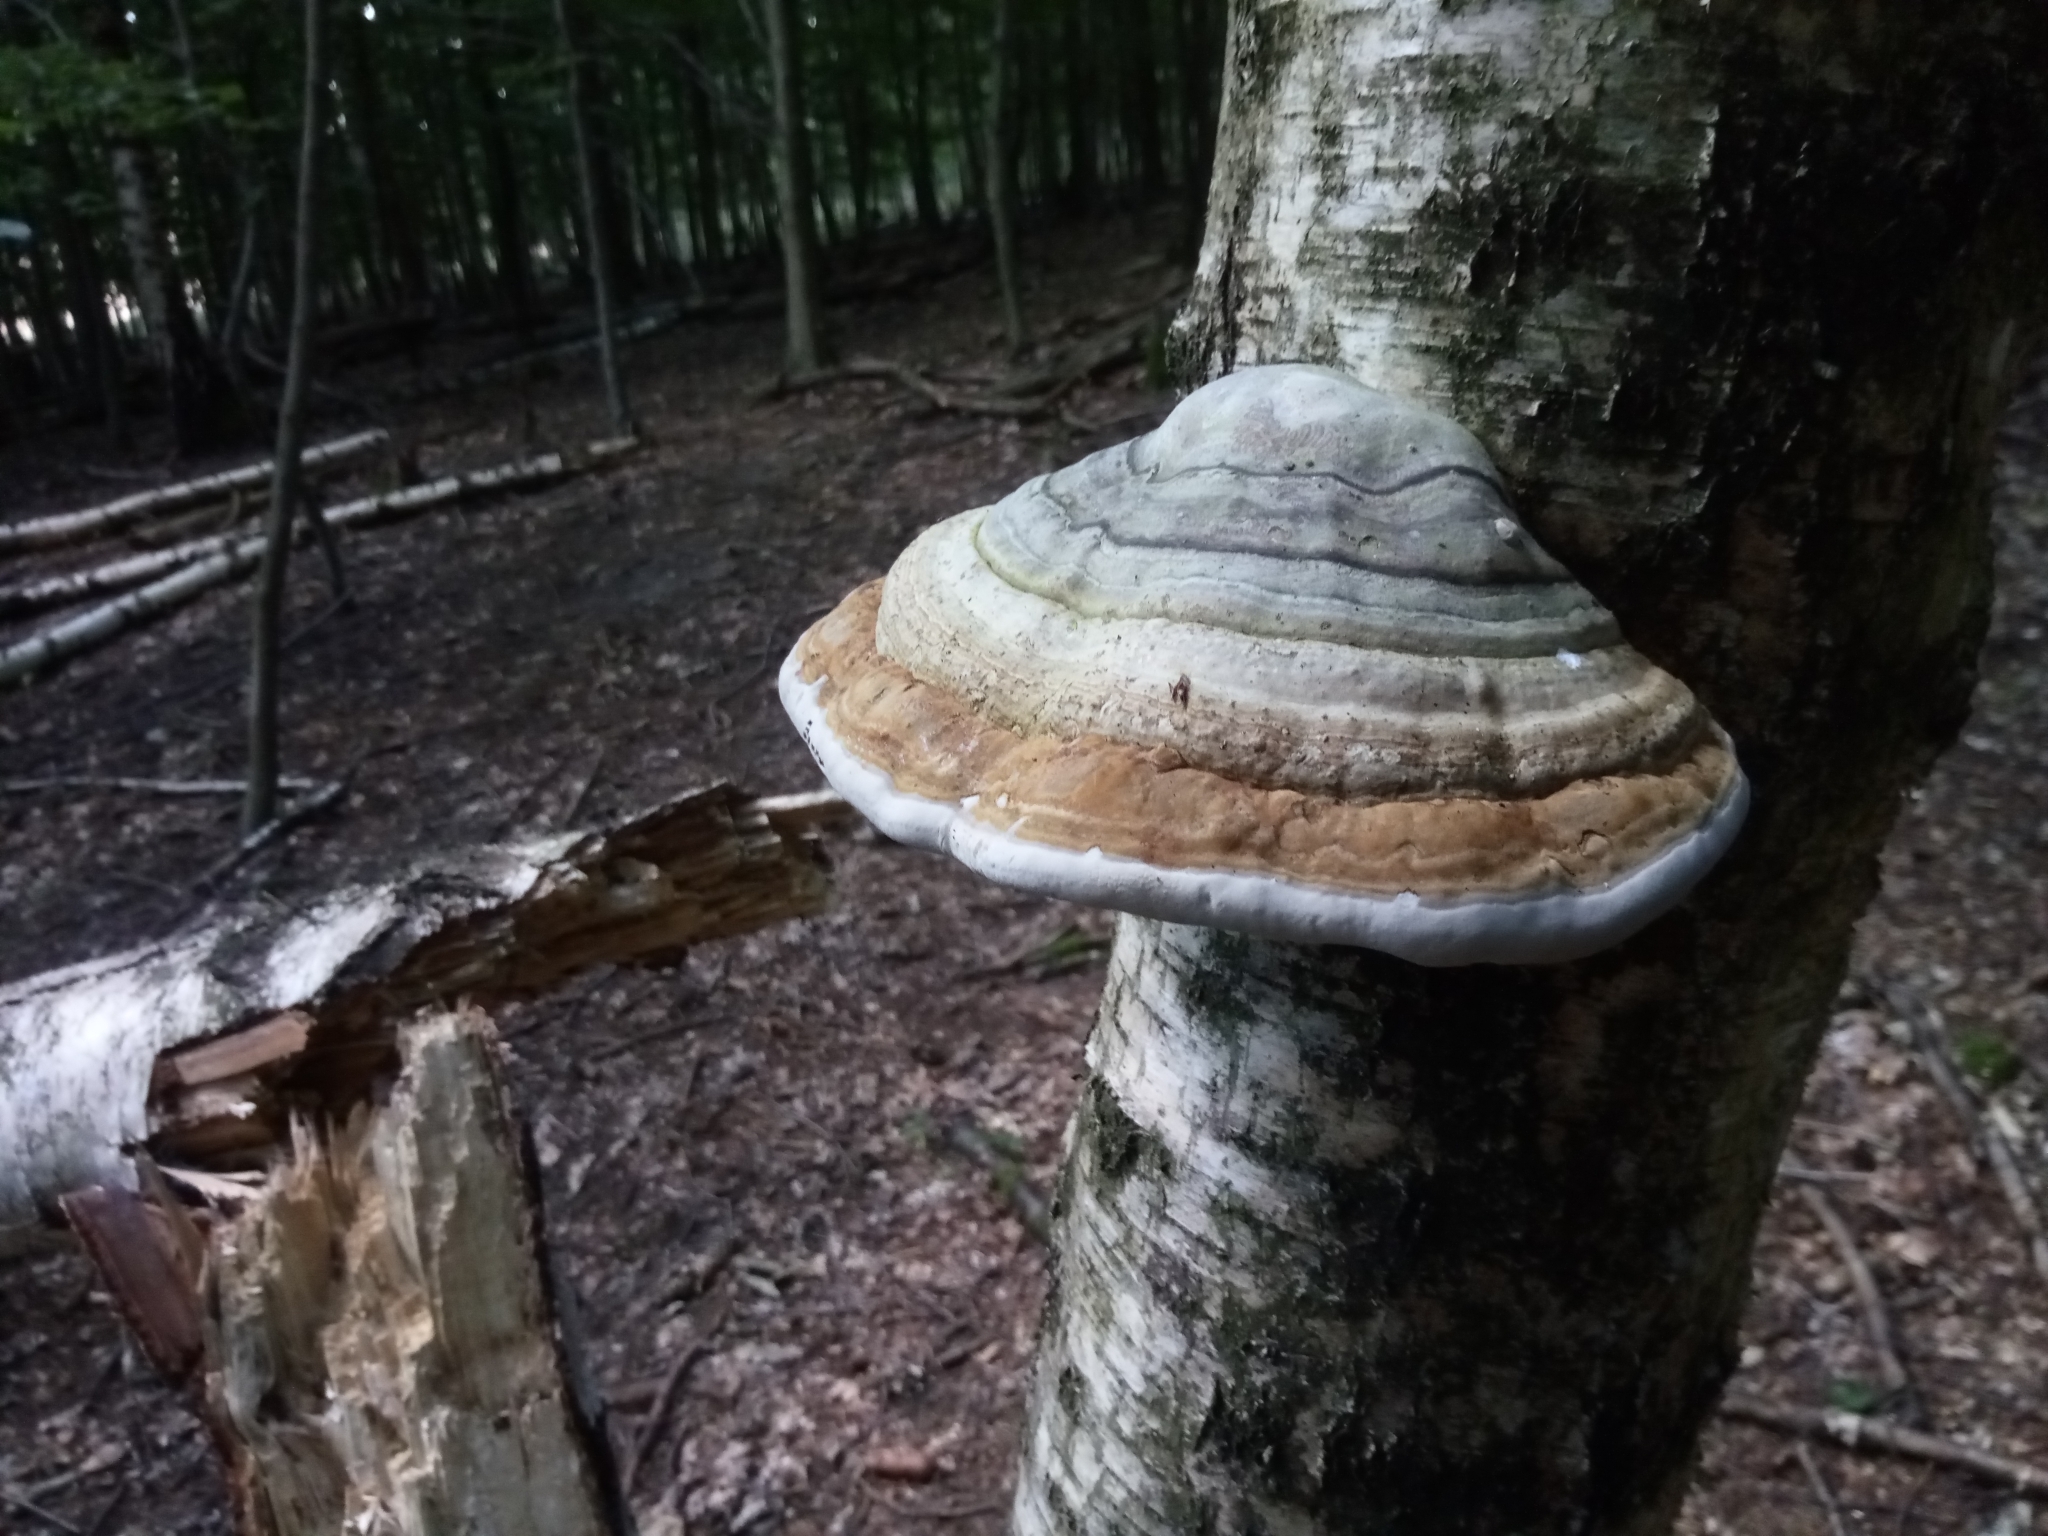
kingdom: Fungi
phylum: Basidiomycota
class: Agaricomycetes
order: Polyporales
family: Polyporaceae
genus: Fomes
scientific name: Fomes fomentarius
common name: Hoof fungus
